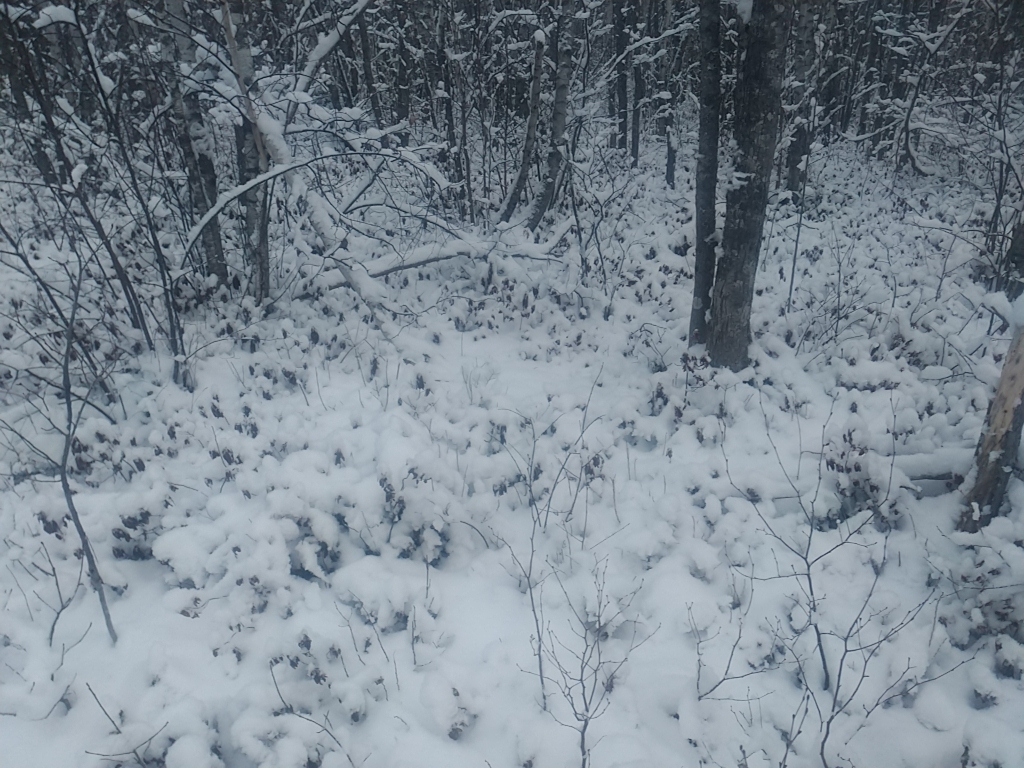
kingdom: Plantae
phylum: Tracheophyta
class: Magnoliopsida
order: Ericales
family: Ericaceae
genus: Kalmia
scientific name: Kalmia angustifolia
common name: Sheep-laurel
